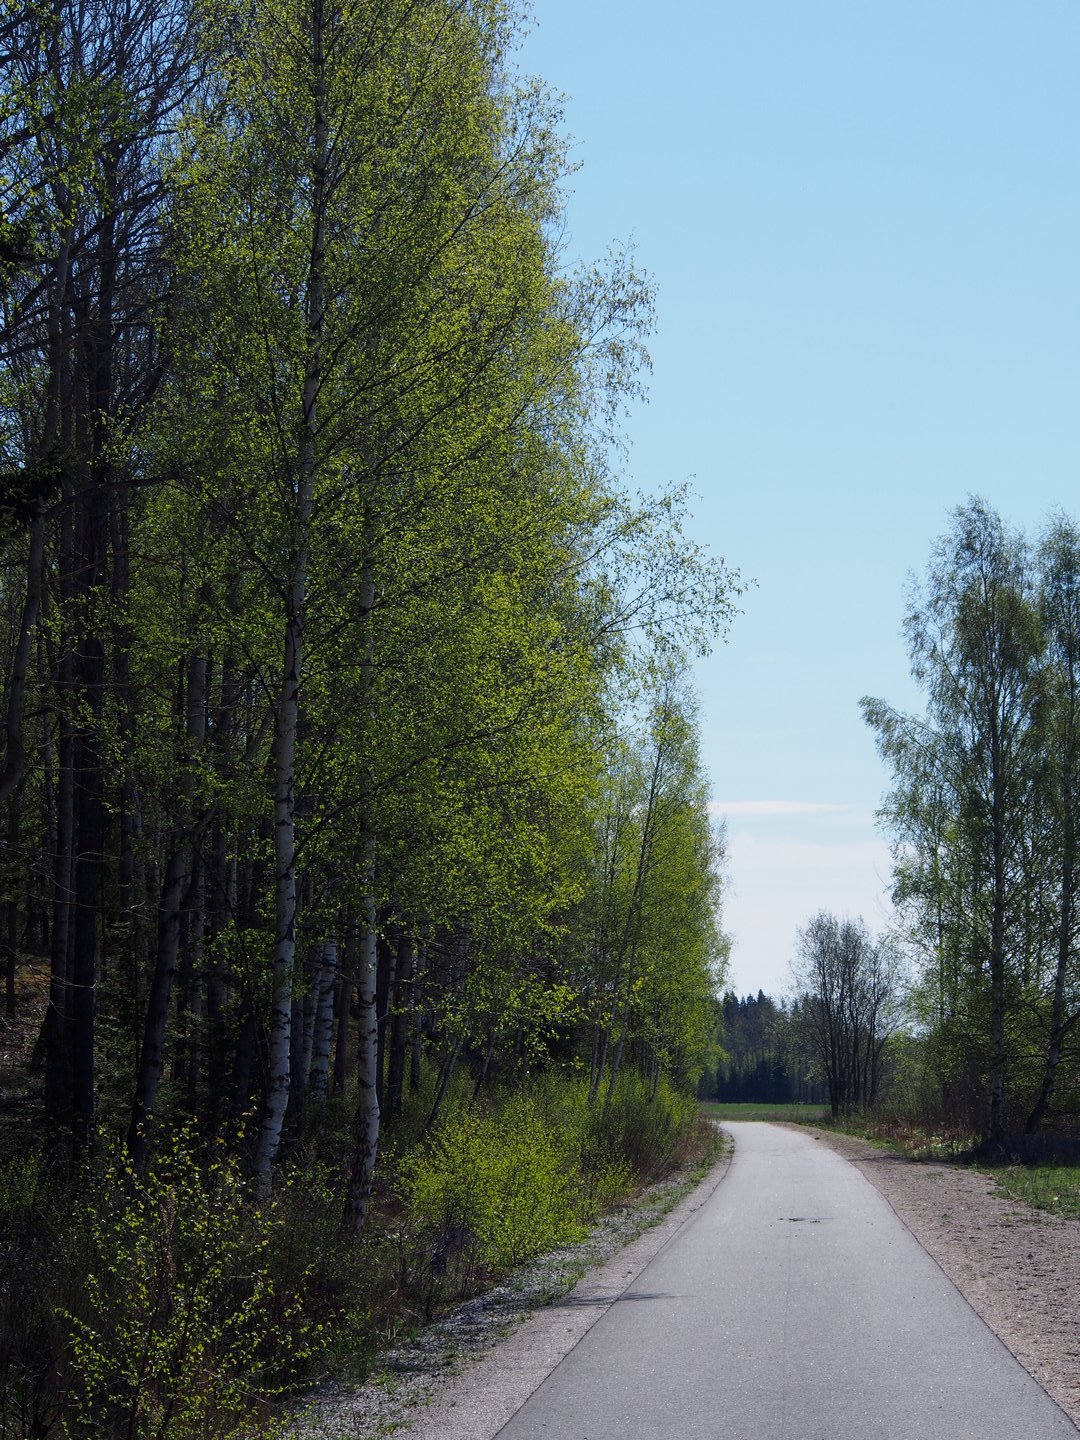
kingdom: Plantae
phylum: Tracheophyta
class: Magnoliopsida
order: Fagales
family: Betulaceae
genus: Betula
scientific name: Betula pendula
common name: Silver birch
